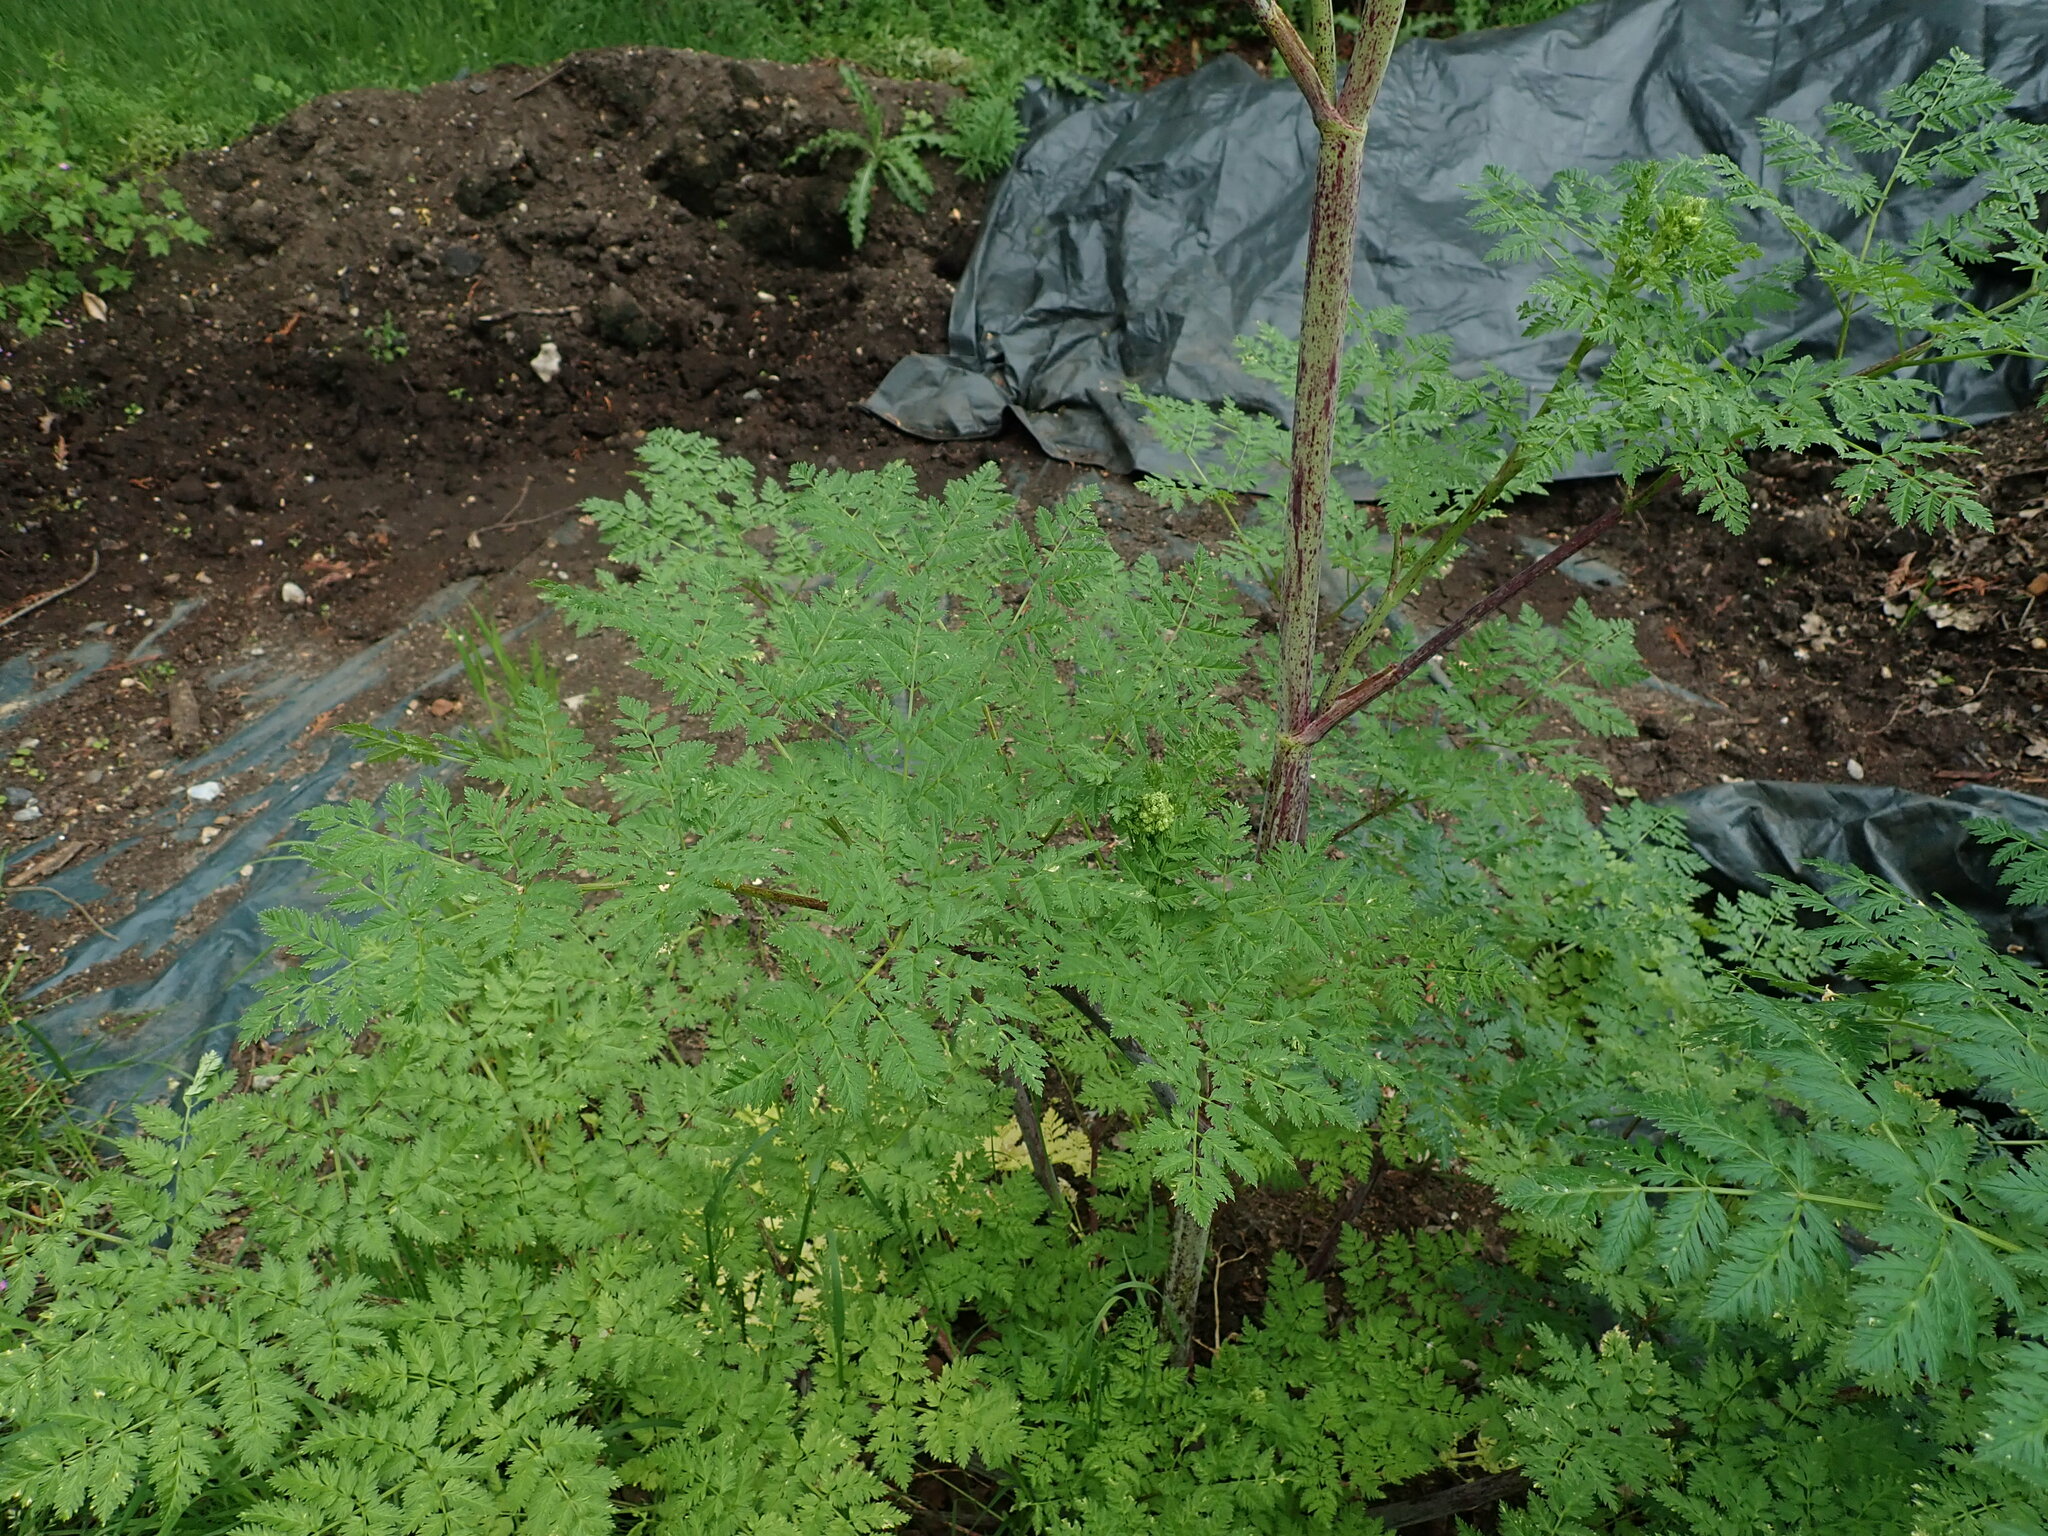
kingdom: Plantae
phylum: Tracheophyta
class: Magnoliopsida
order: Apiales
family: Apiaceae
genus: Conium
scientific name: Conium maculatum
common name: Hemlock
